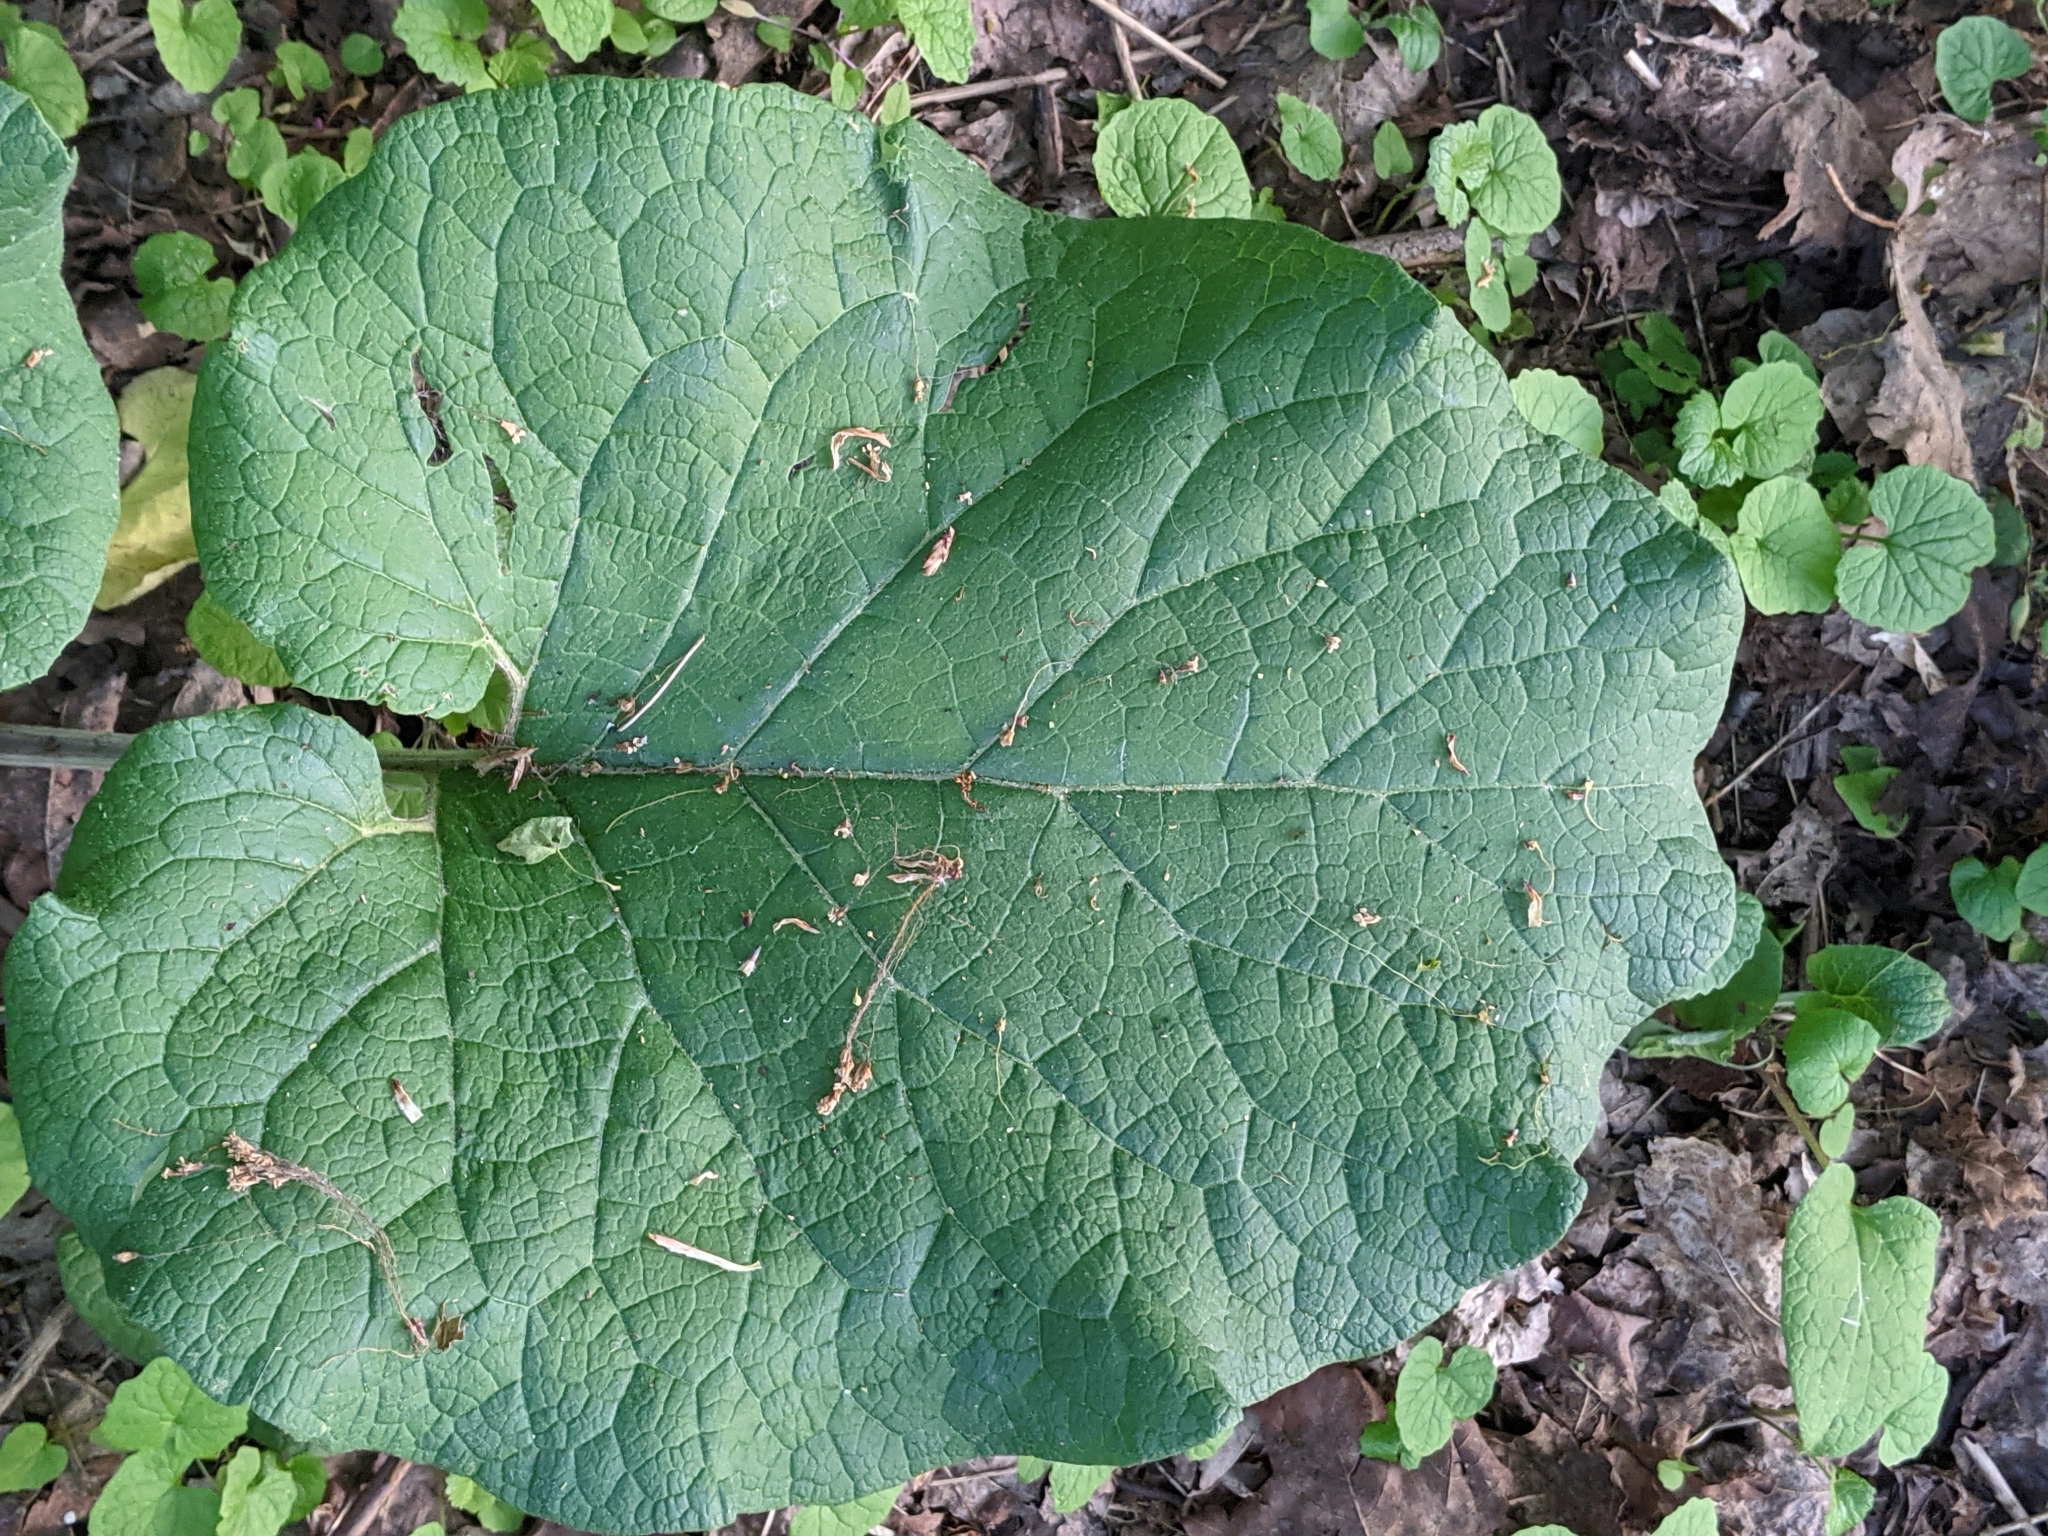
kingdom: Plantae
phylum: Tracheophyta
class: Magnoliopsida
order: Asterales
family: Asteraceae
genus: Arctium
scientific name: Arctium
